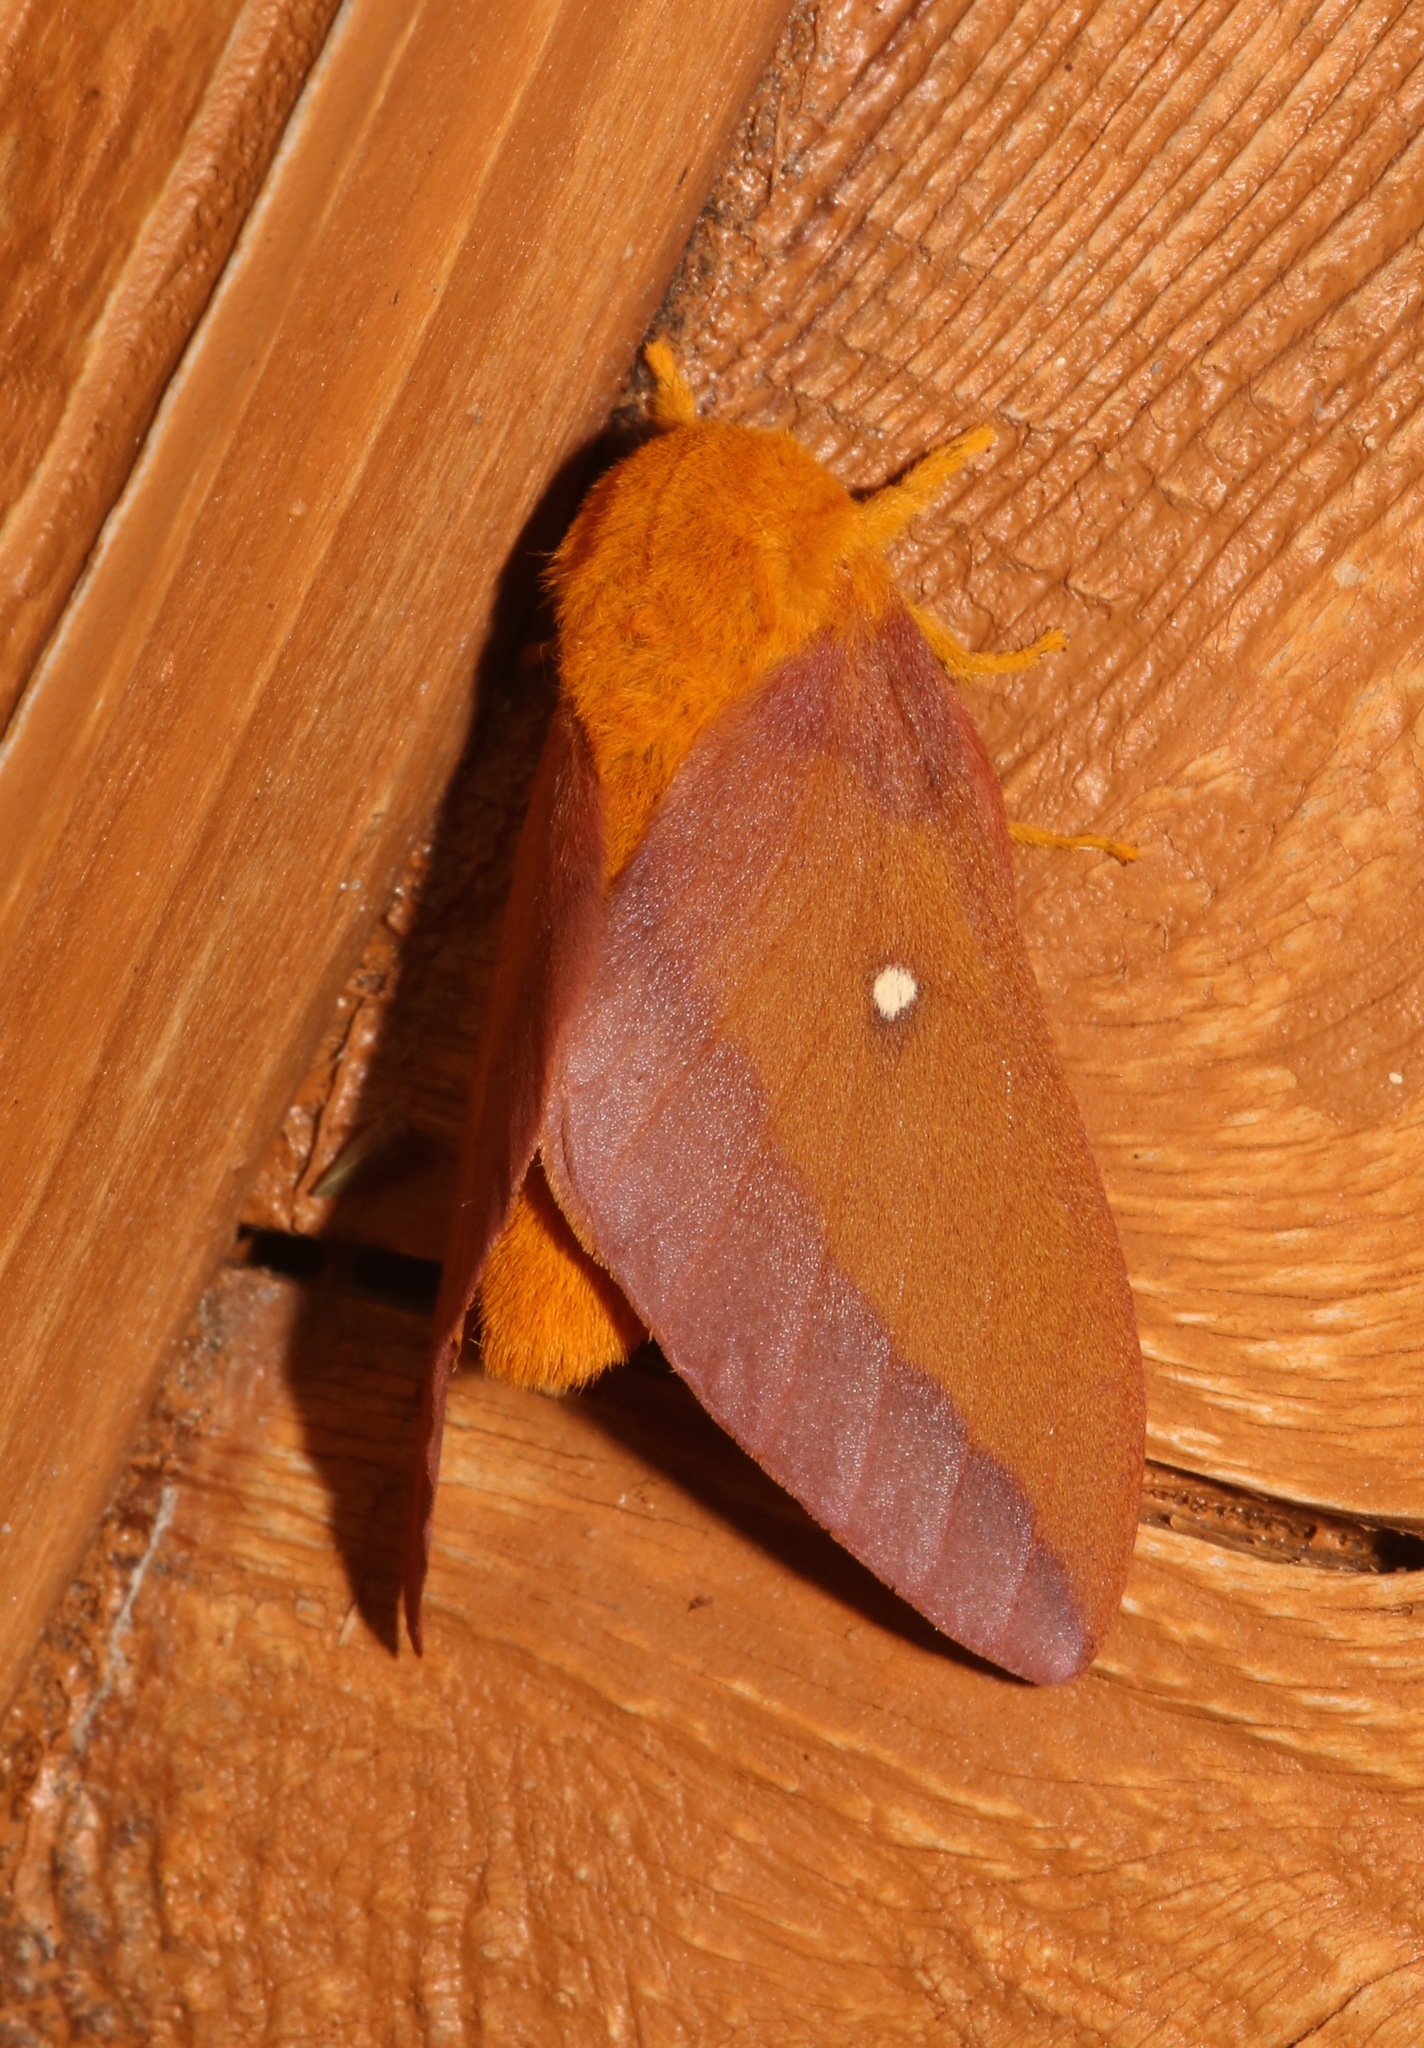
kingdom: Animalia
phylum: Arthropoda
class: Insecta
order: Lepidoptera
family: Saturniidae
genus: Anisota
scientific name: Anisota virginiensis
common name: Pink striped oakworm moth
